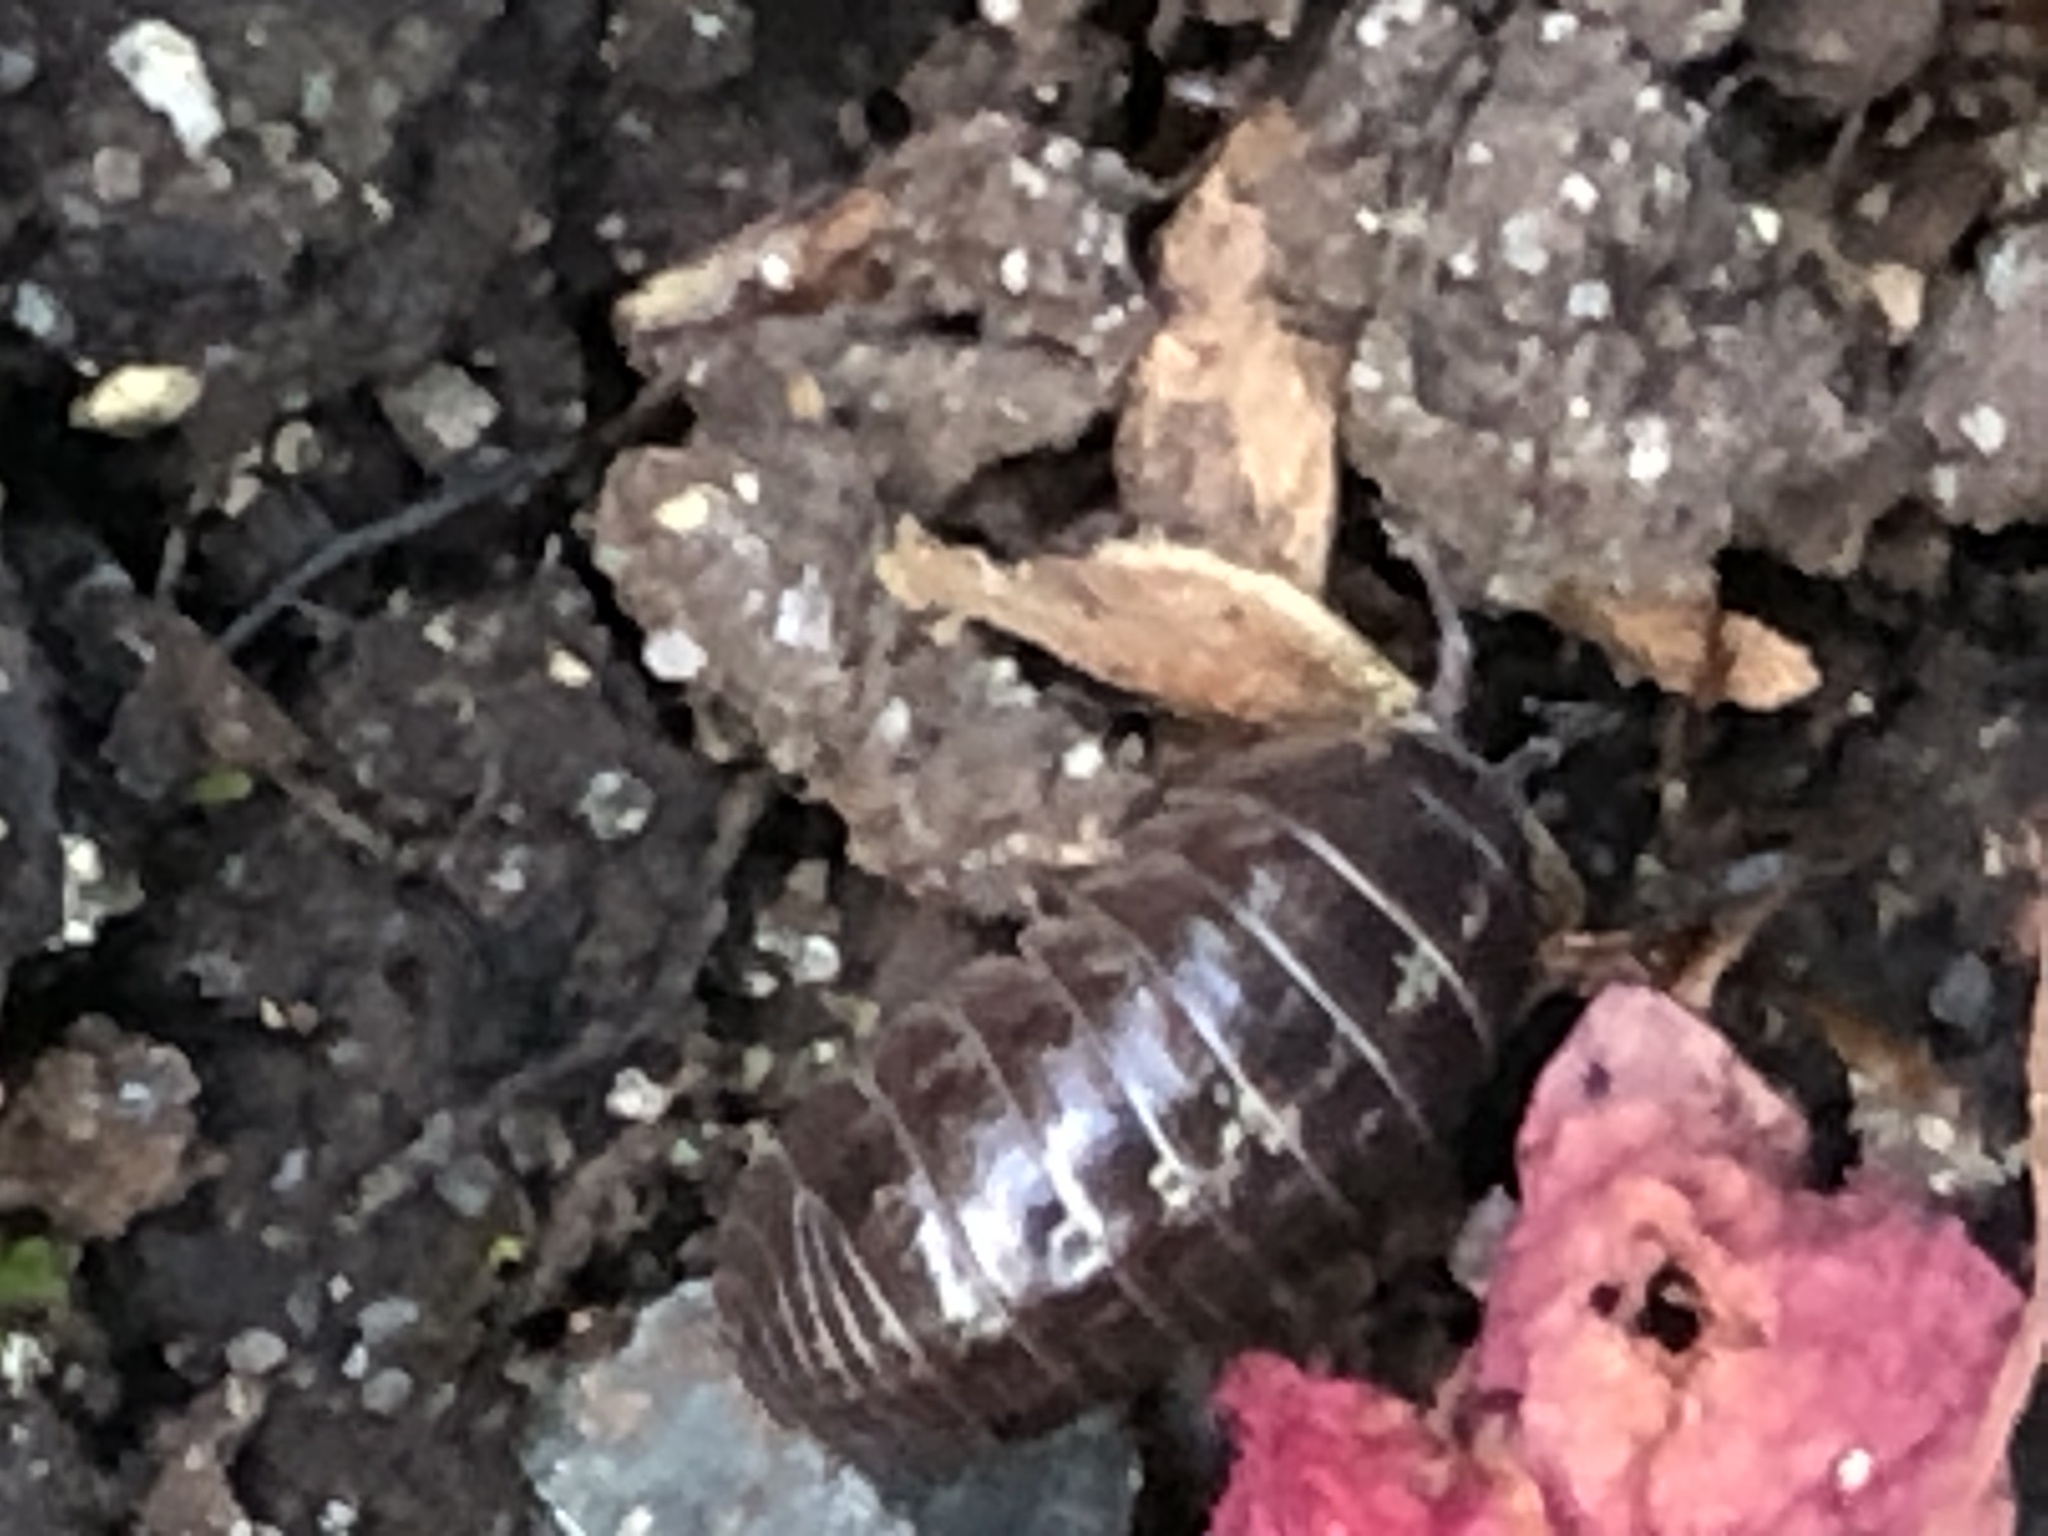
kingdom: Animalia
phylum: Arthropoda
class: Malacostraca
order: Isopoda
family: Armadillidiidae
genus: Armadillidium
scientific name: Armadillidium vulgare
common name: Common pill woodlouse
